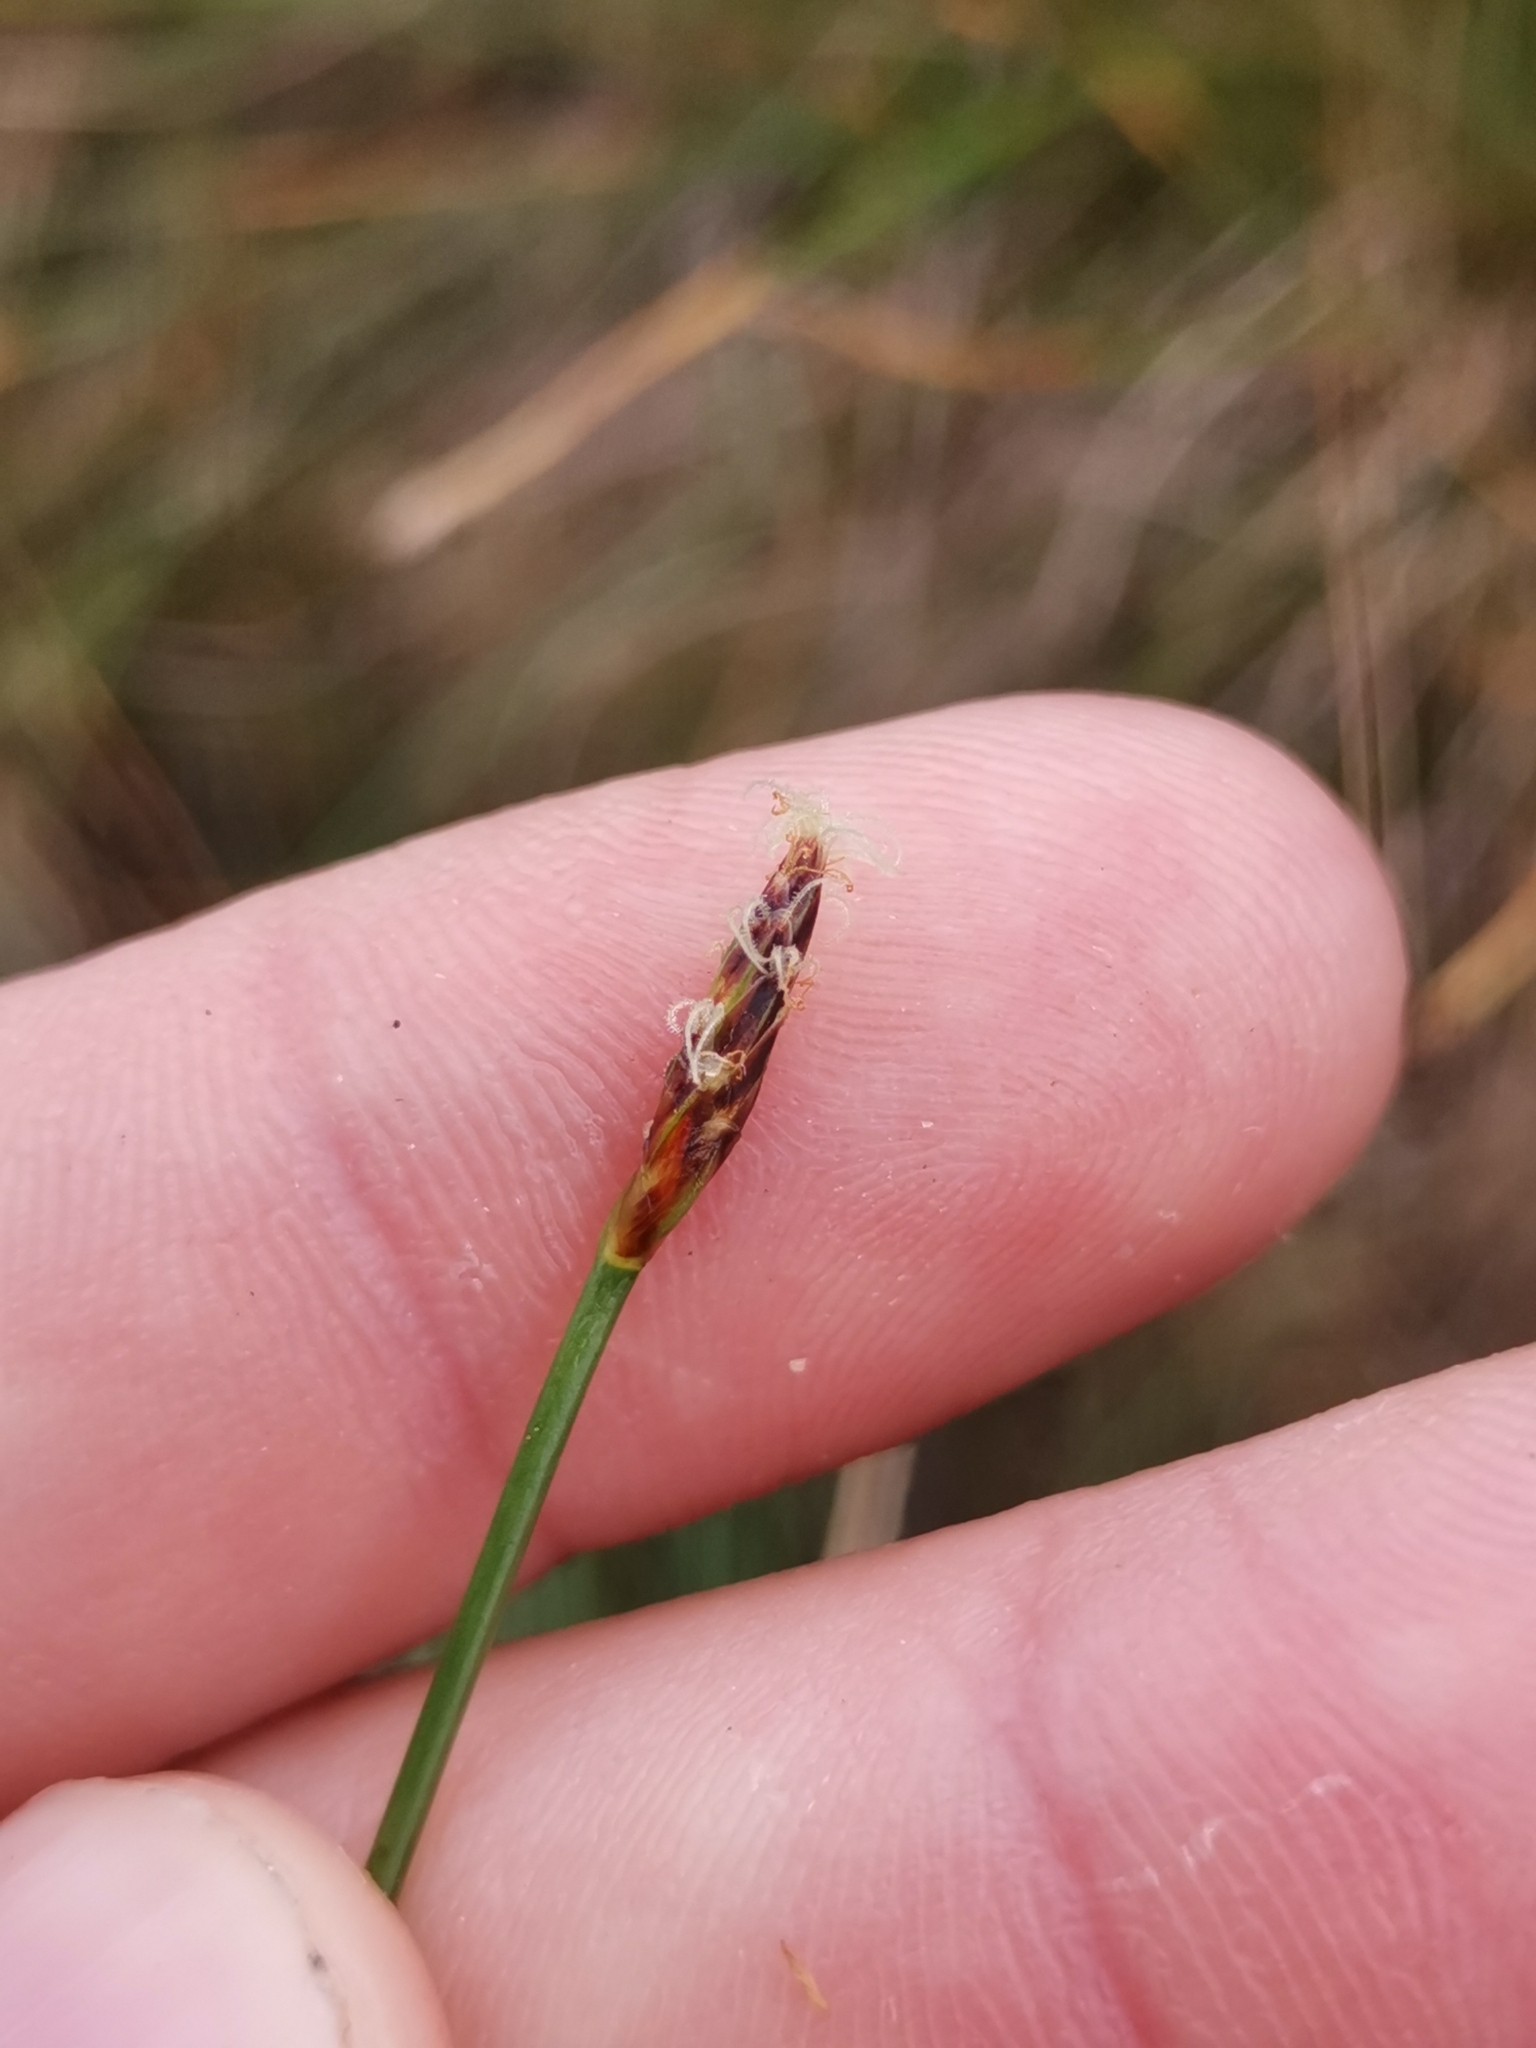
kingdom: Plantae
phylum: Tracheophyta
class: Liliopsida
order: Poales
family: Cyperaceae
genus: Eleocharis
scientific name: Eleocharis multicaulis
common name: Many-stalked spike-rush
